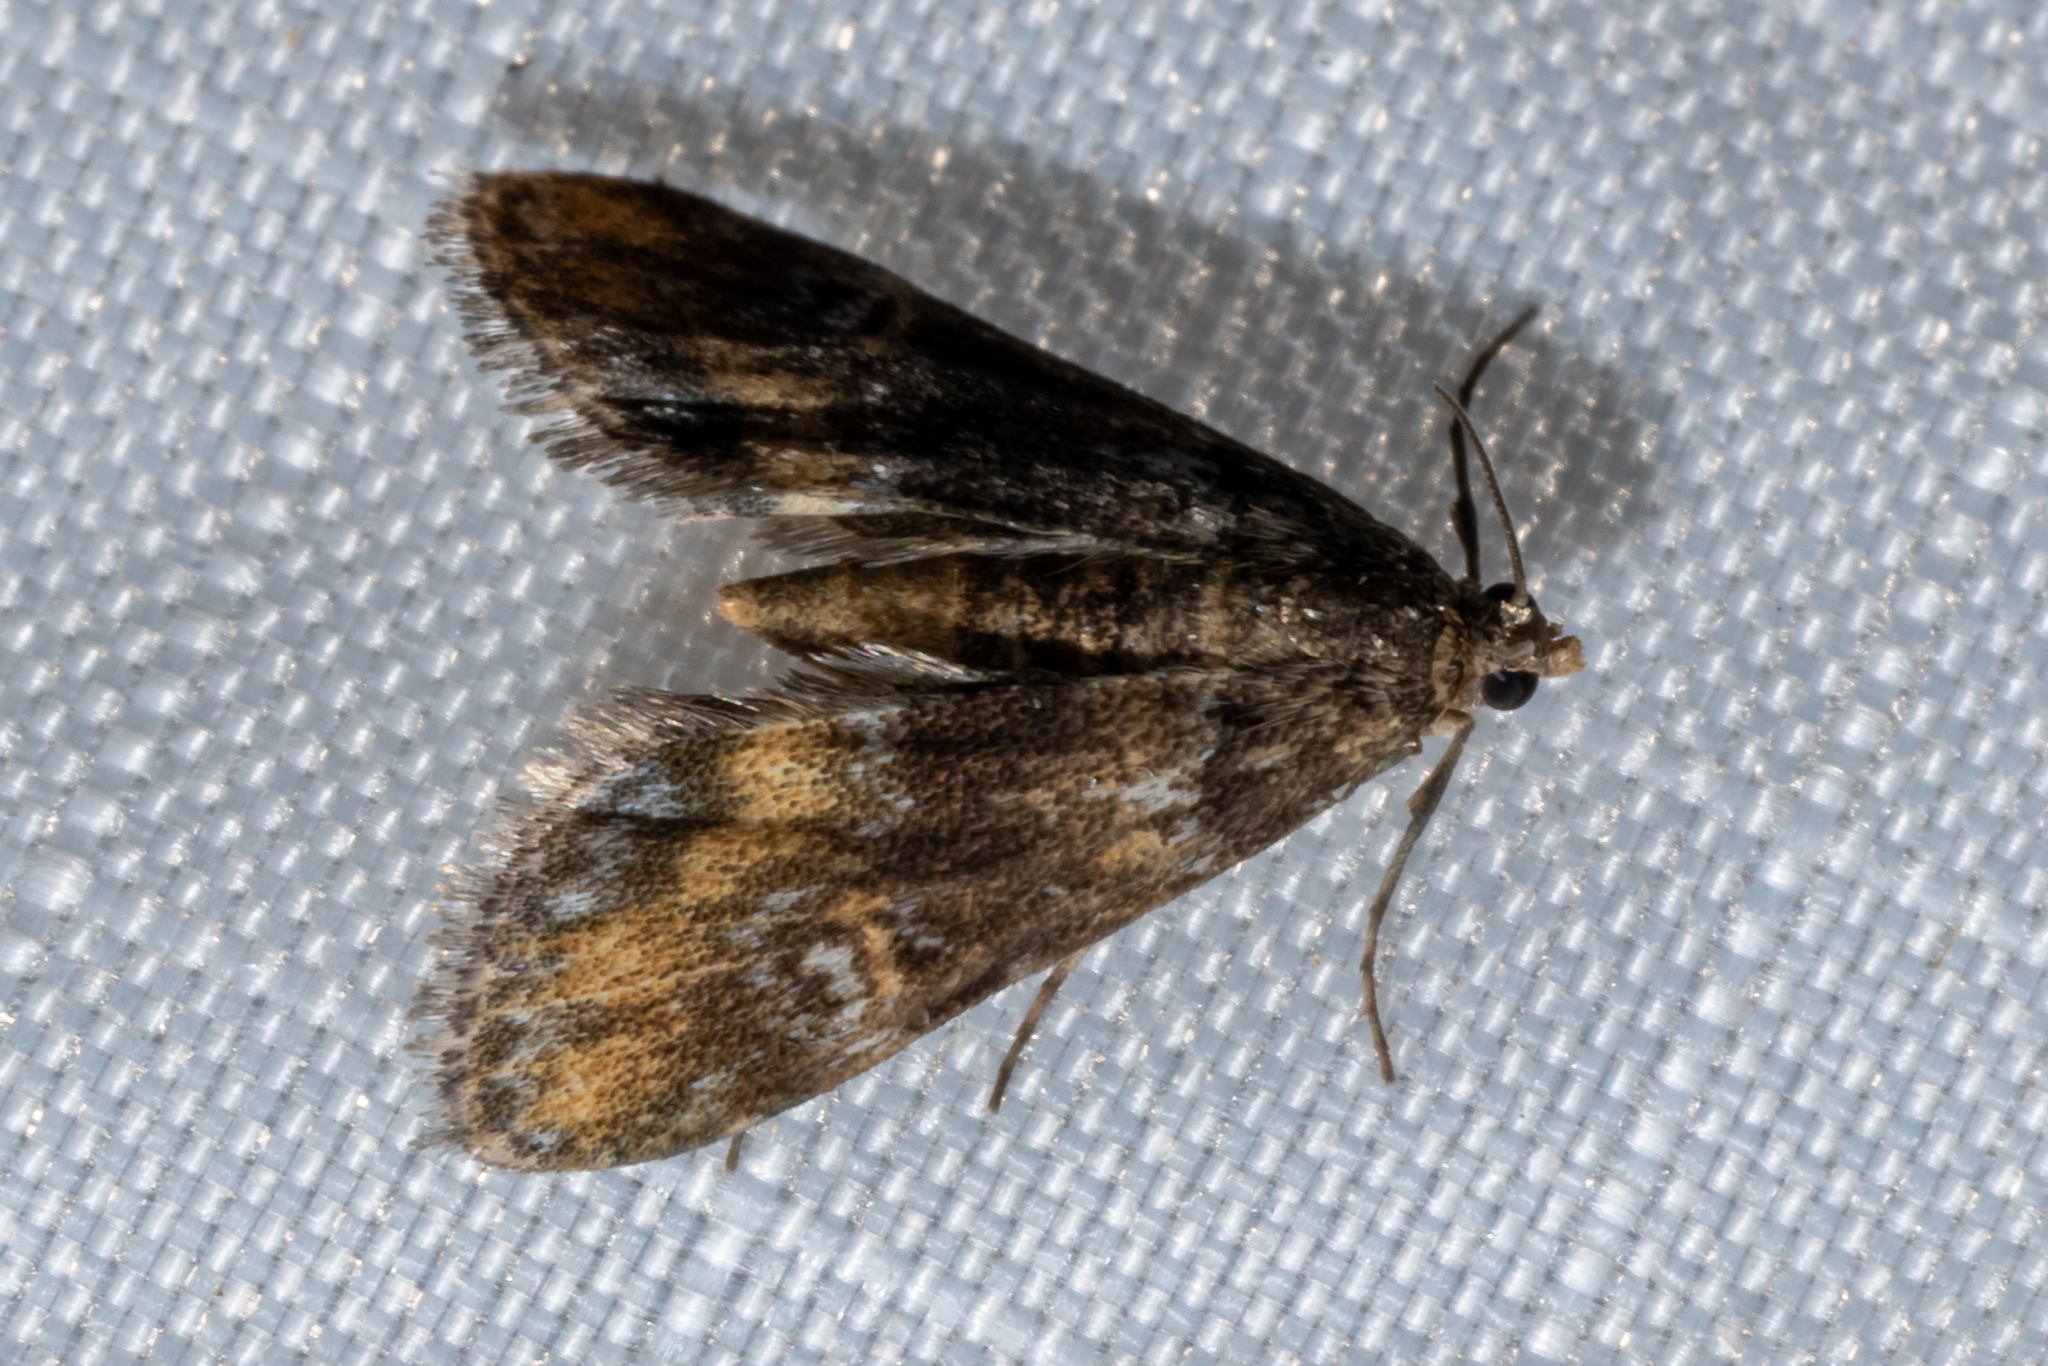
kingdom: Animalia
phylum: Arthropoda
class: Insecta
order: Lepidoptera
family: Crambidae
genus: Elophila
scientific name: Elophila obliteralis
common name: Waterlily leafcutter moth
